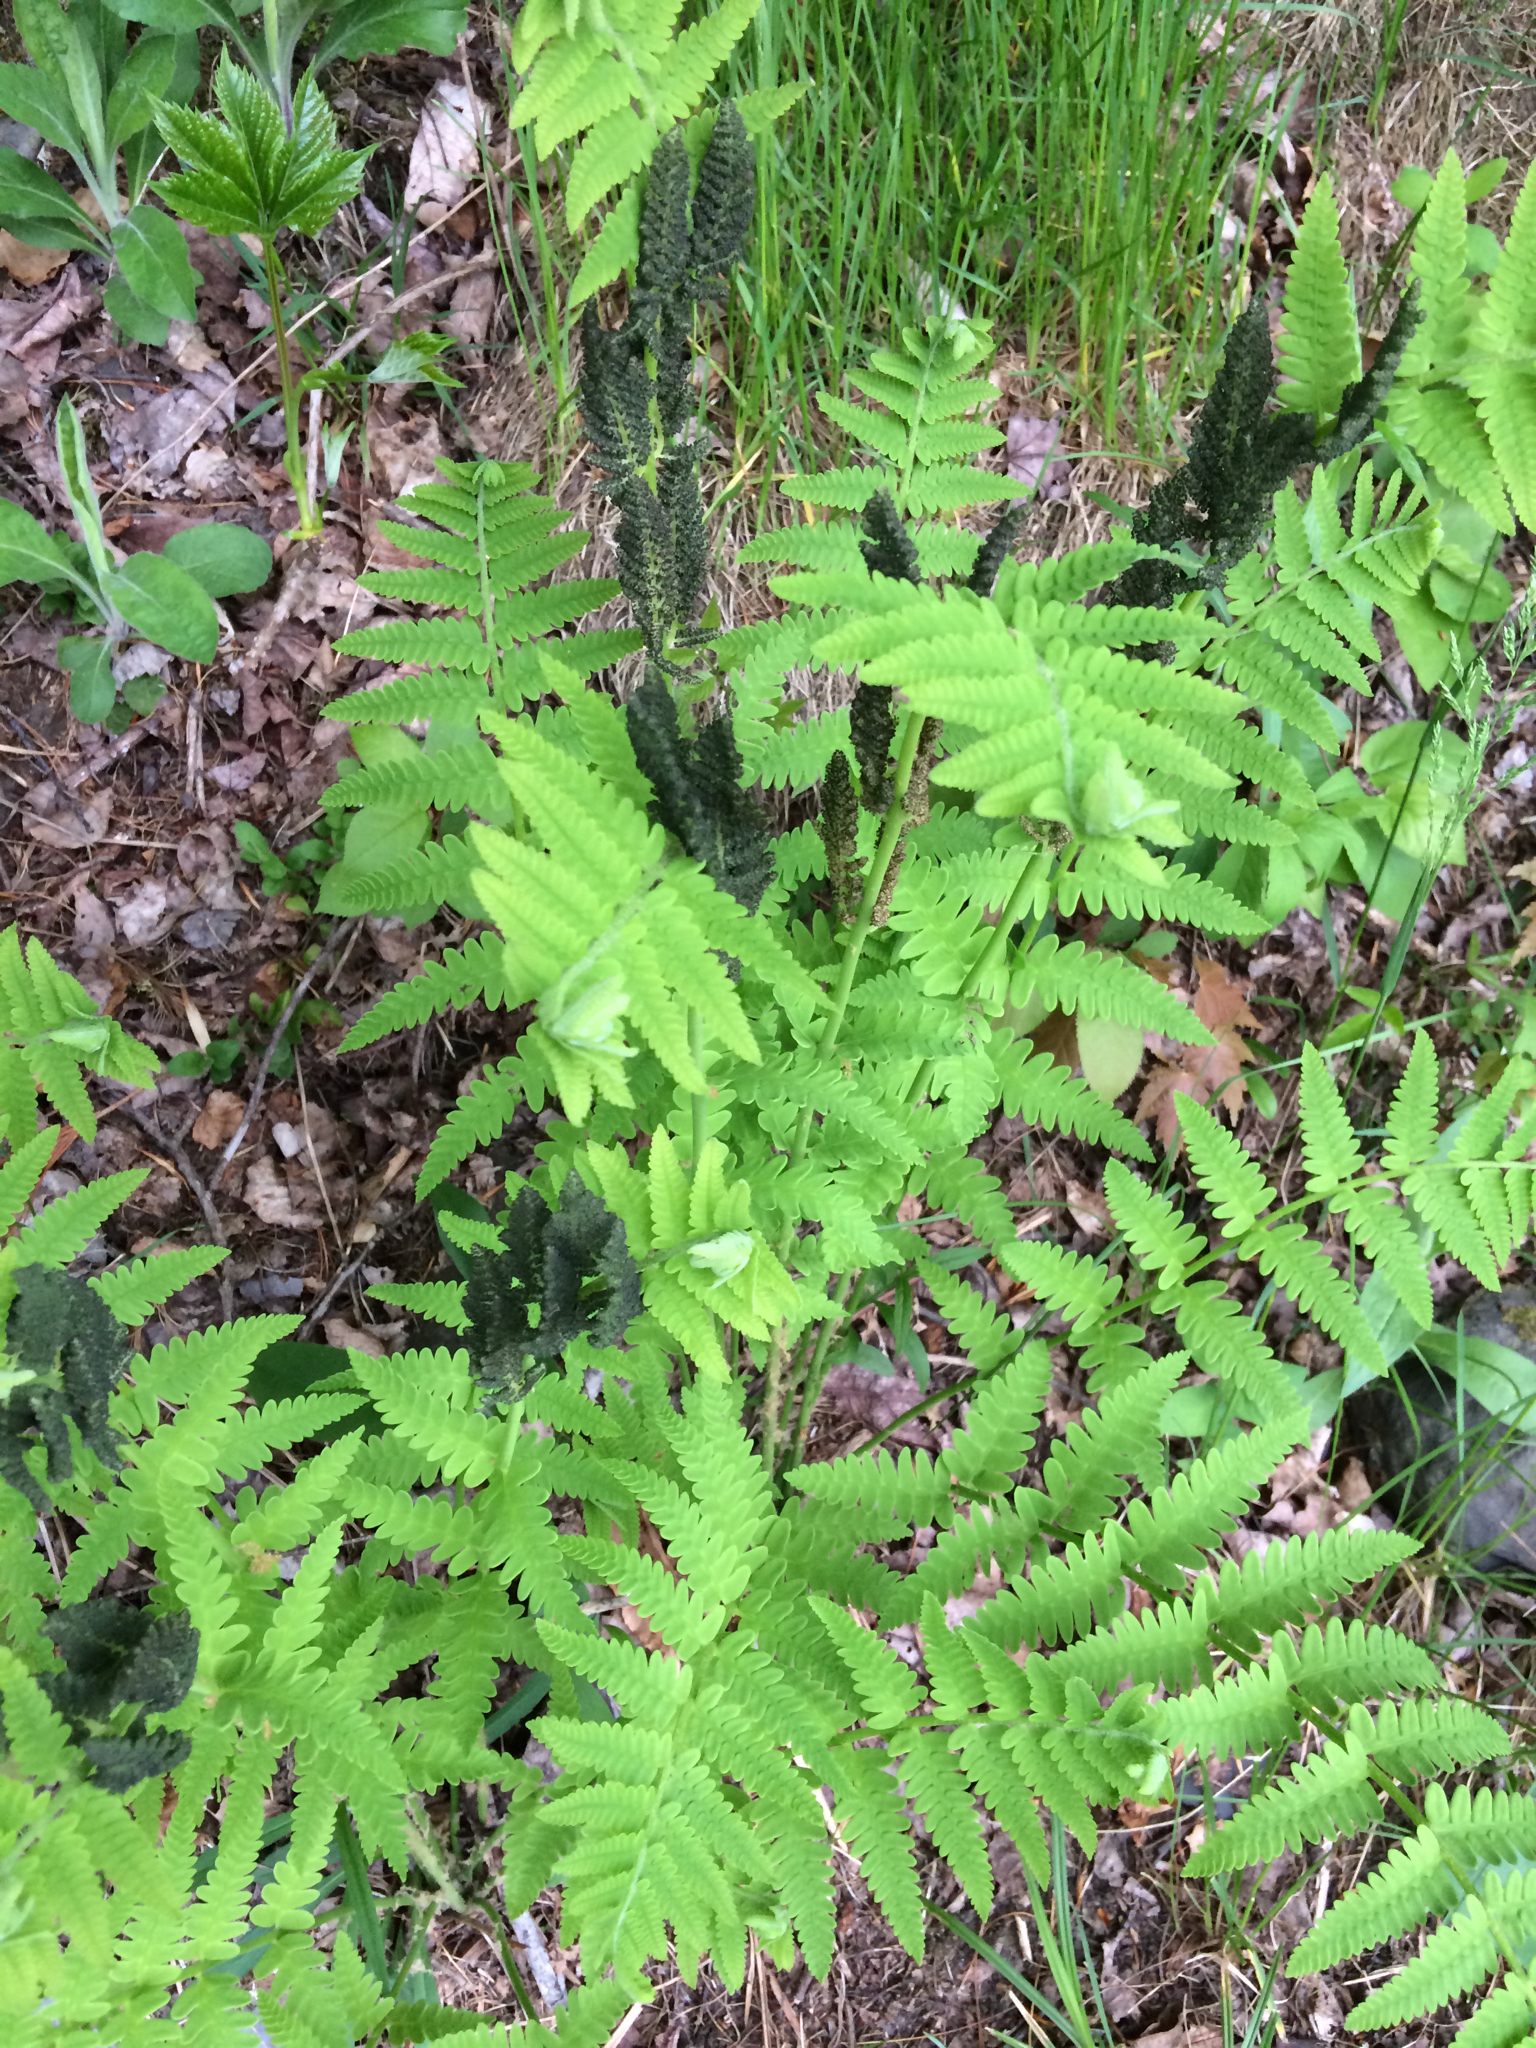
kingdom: Plantae
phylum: Tracheophyta
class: Polypodiopsida
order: Osmundales
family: Osmundaceae
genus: Claytosmunda
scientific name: Claytosmunda claytoniana
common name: Clayton's fern
